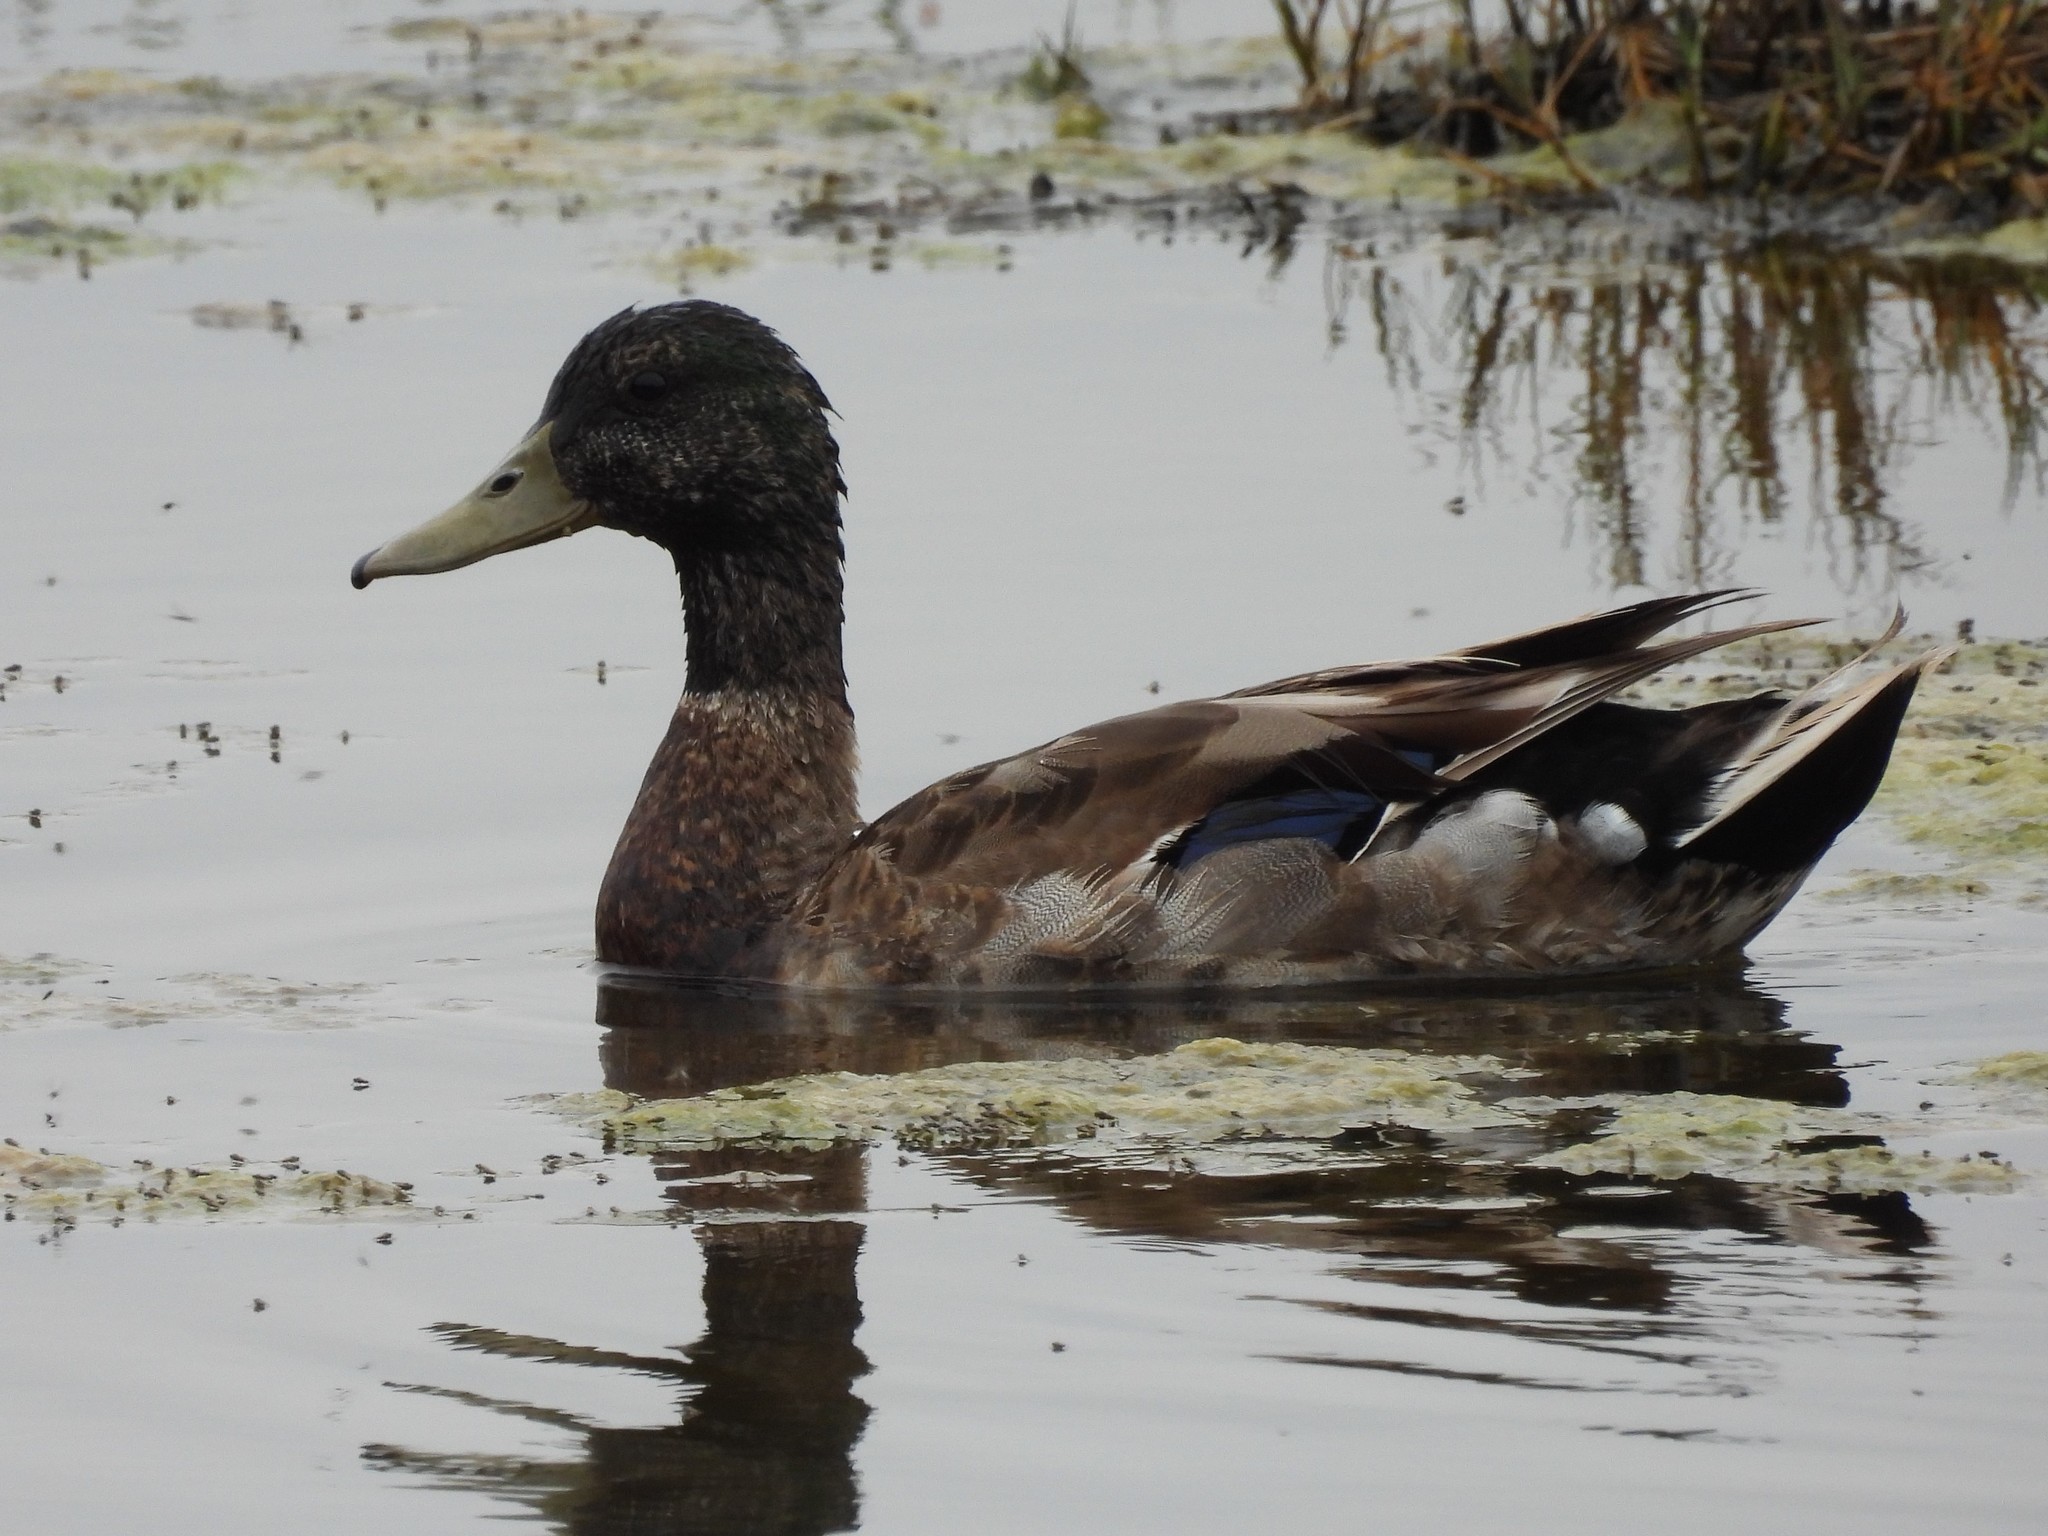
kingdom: Animalia
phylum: Chordata
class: Aves
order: Anseriformes
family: Anatidae
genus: Anas
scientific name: Anas platyrhynchos
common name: Mallard
